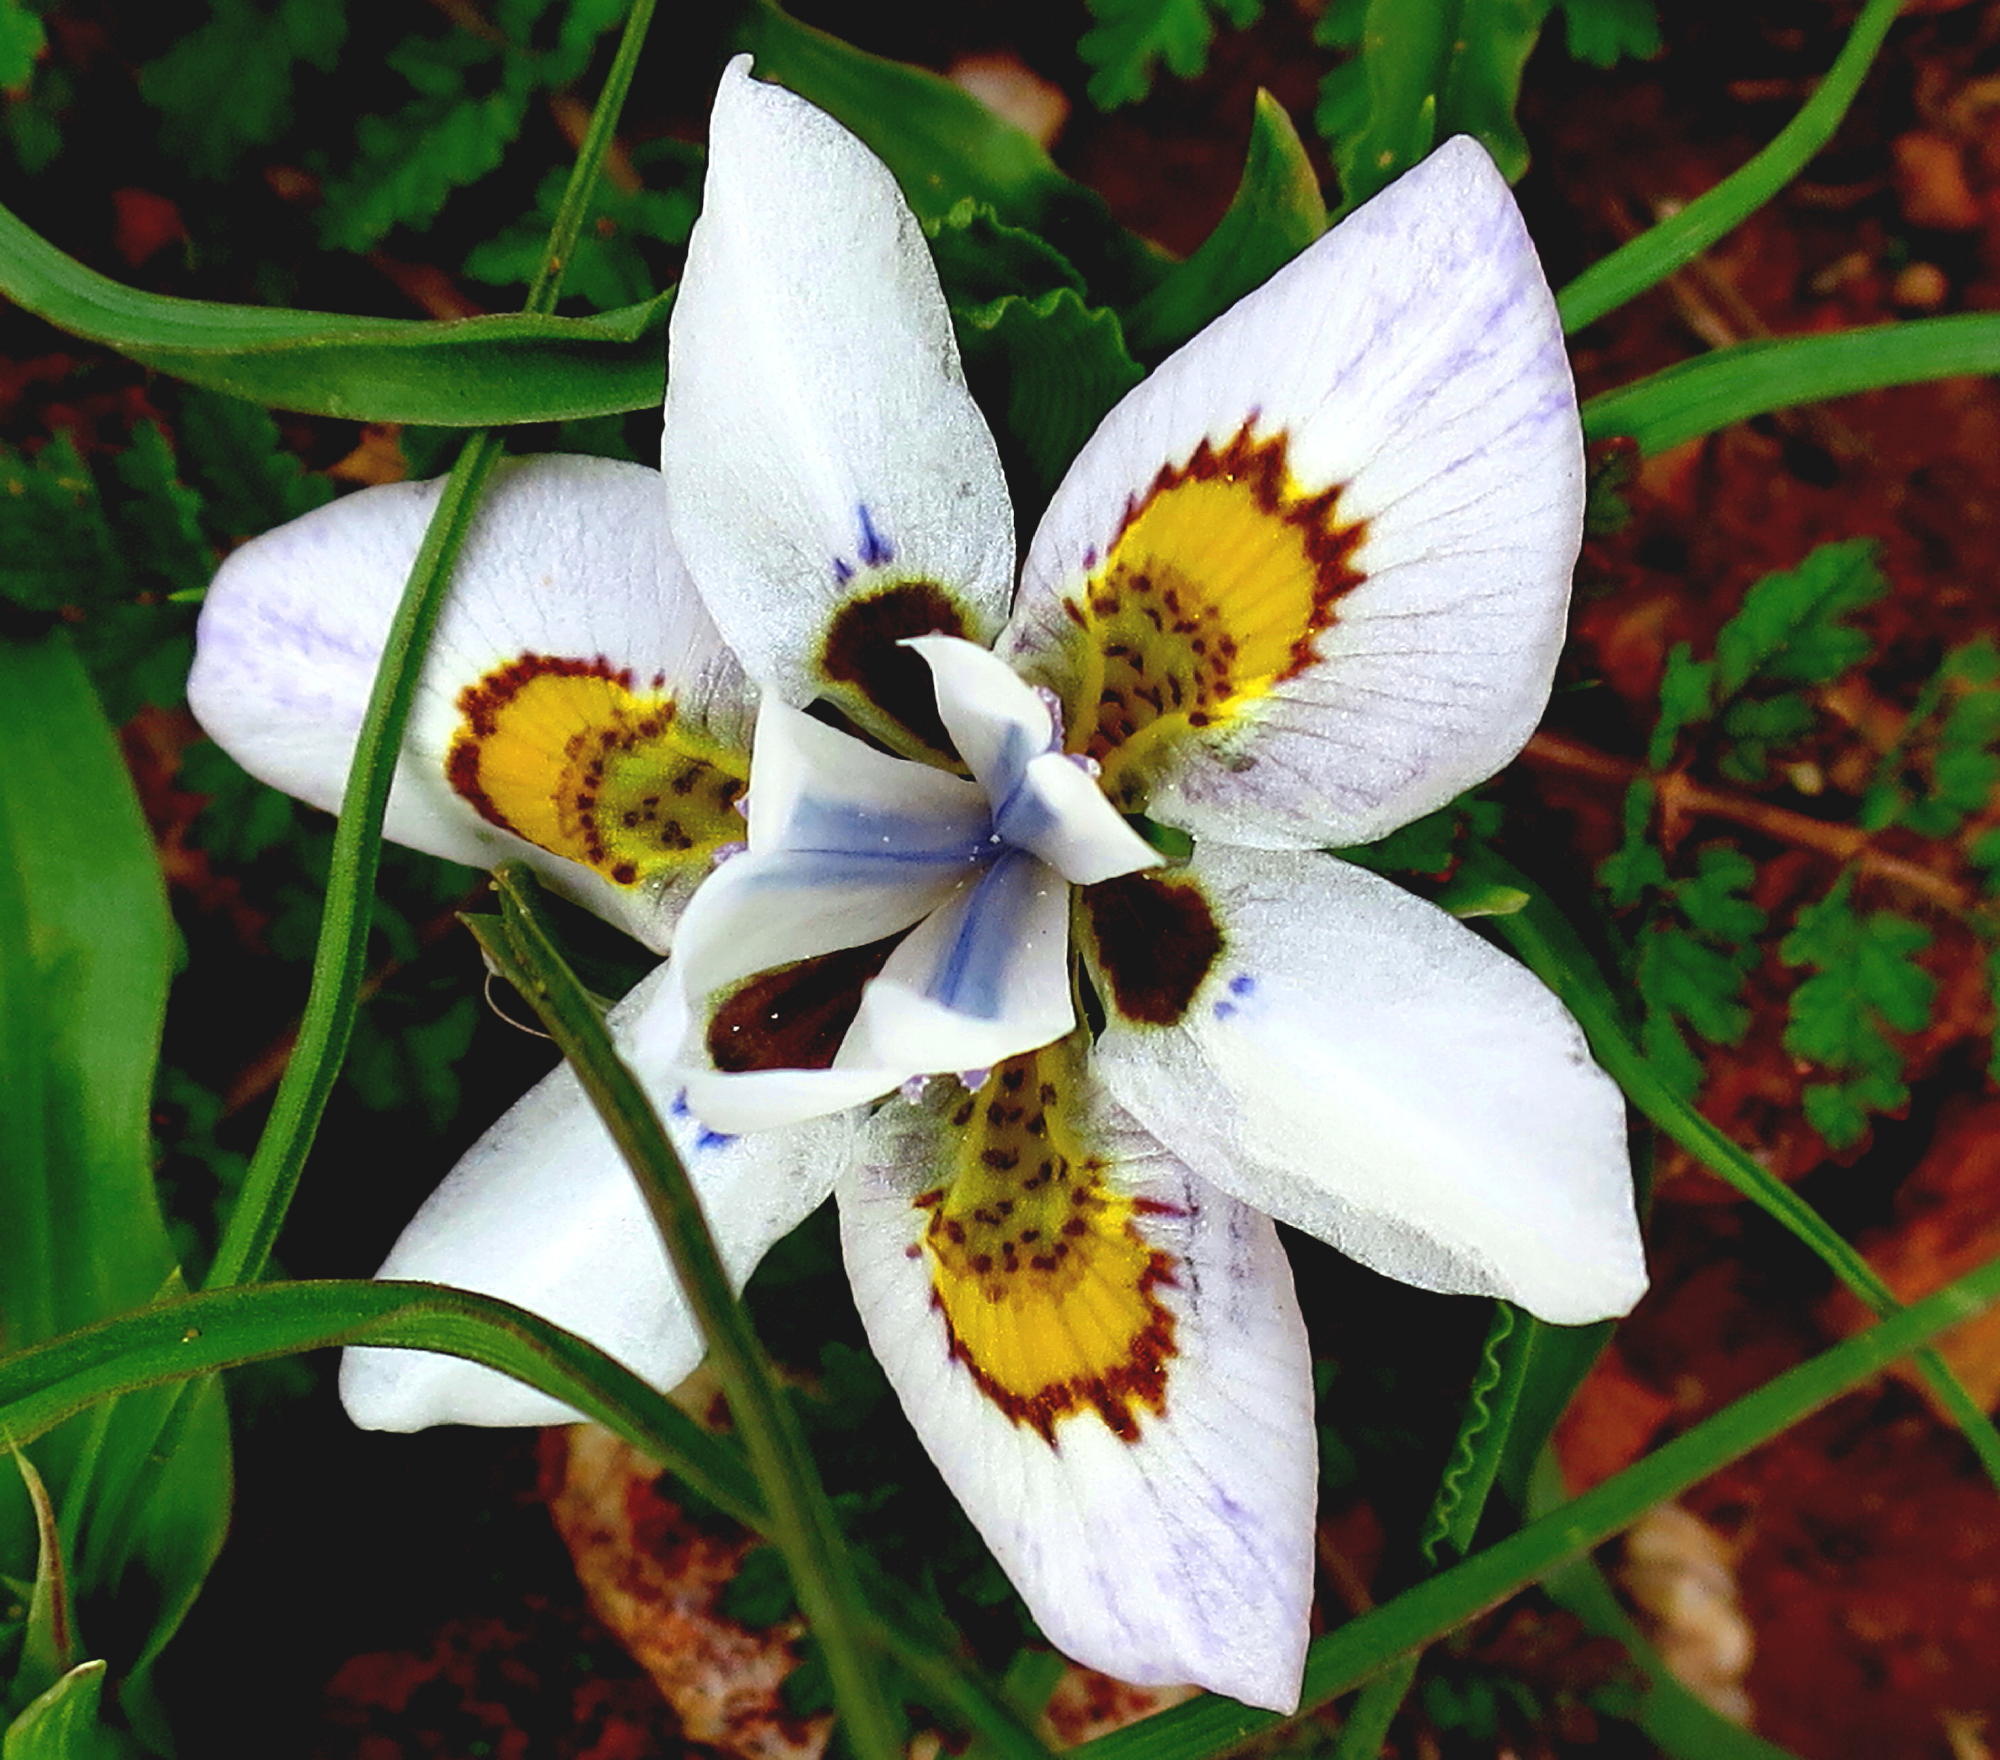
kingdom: Plantae
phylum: Tracheophyta
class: Liliopsida
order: Asparagales
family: Iridaceae
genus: Moraea
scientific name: Moraea falcifolia
